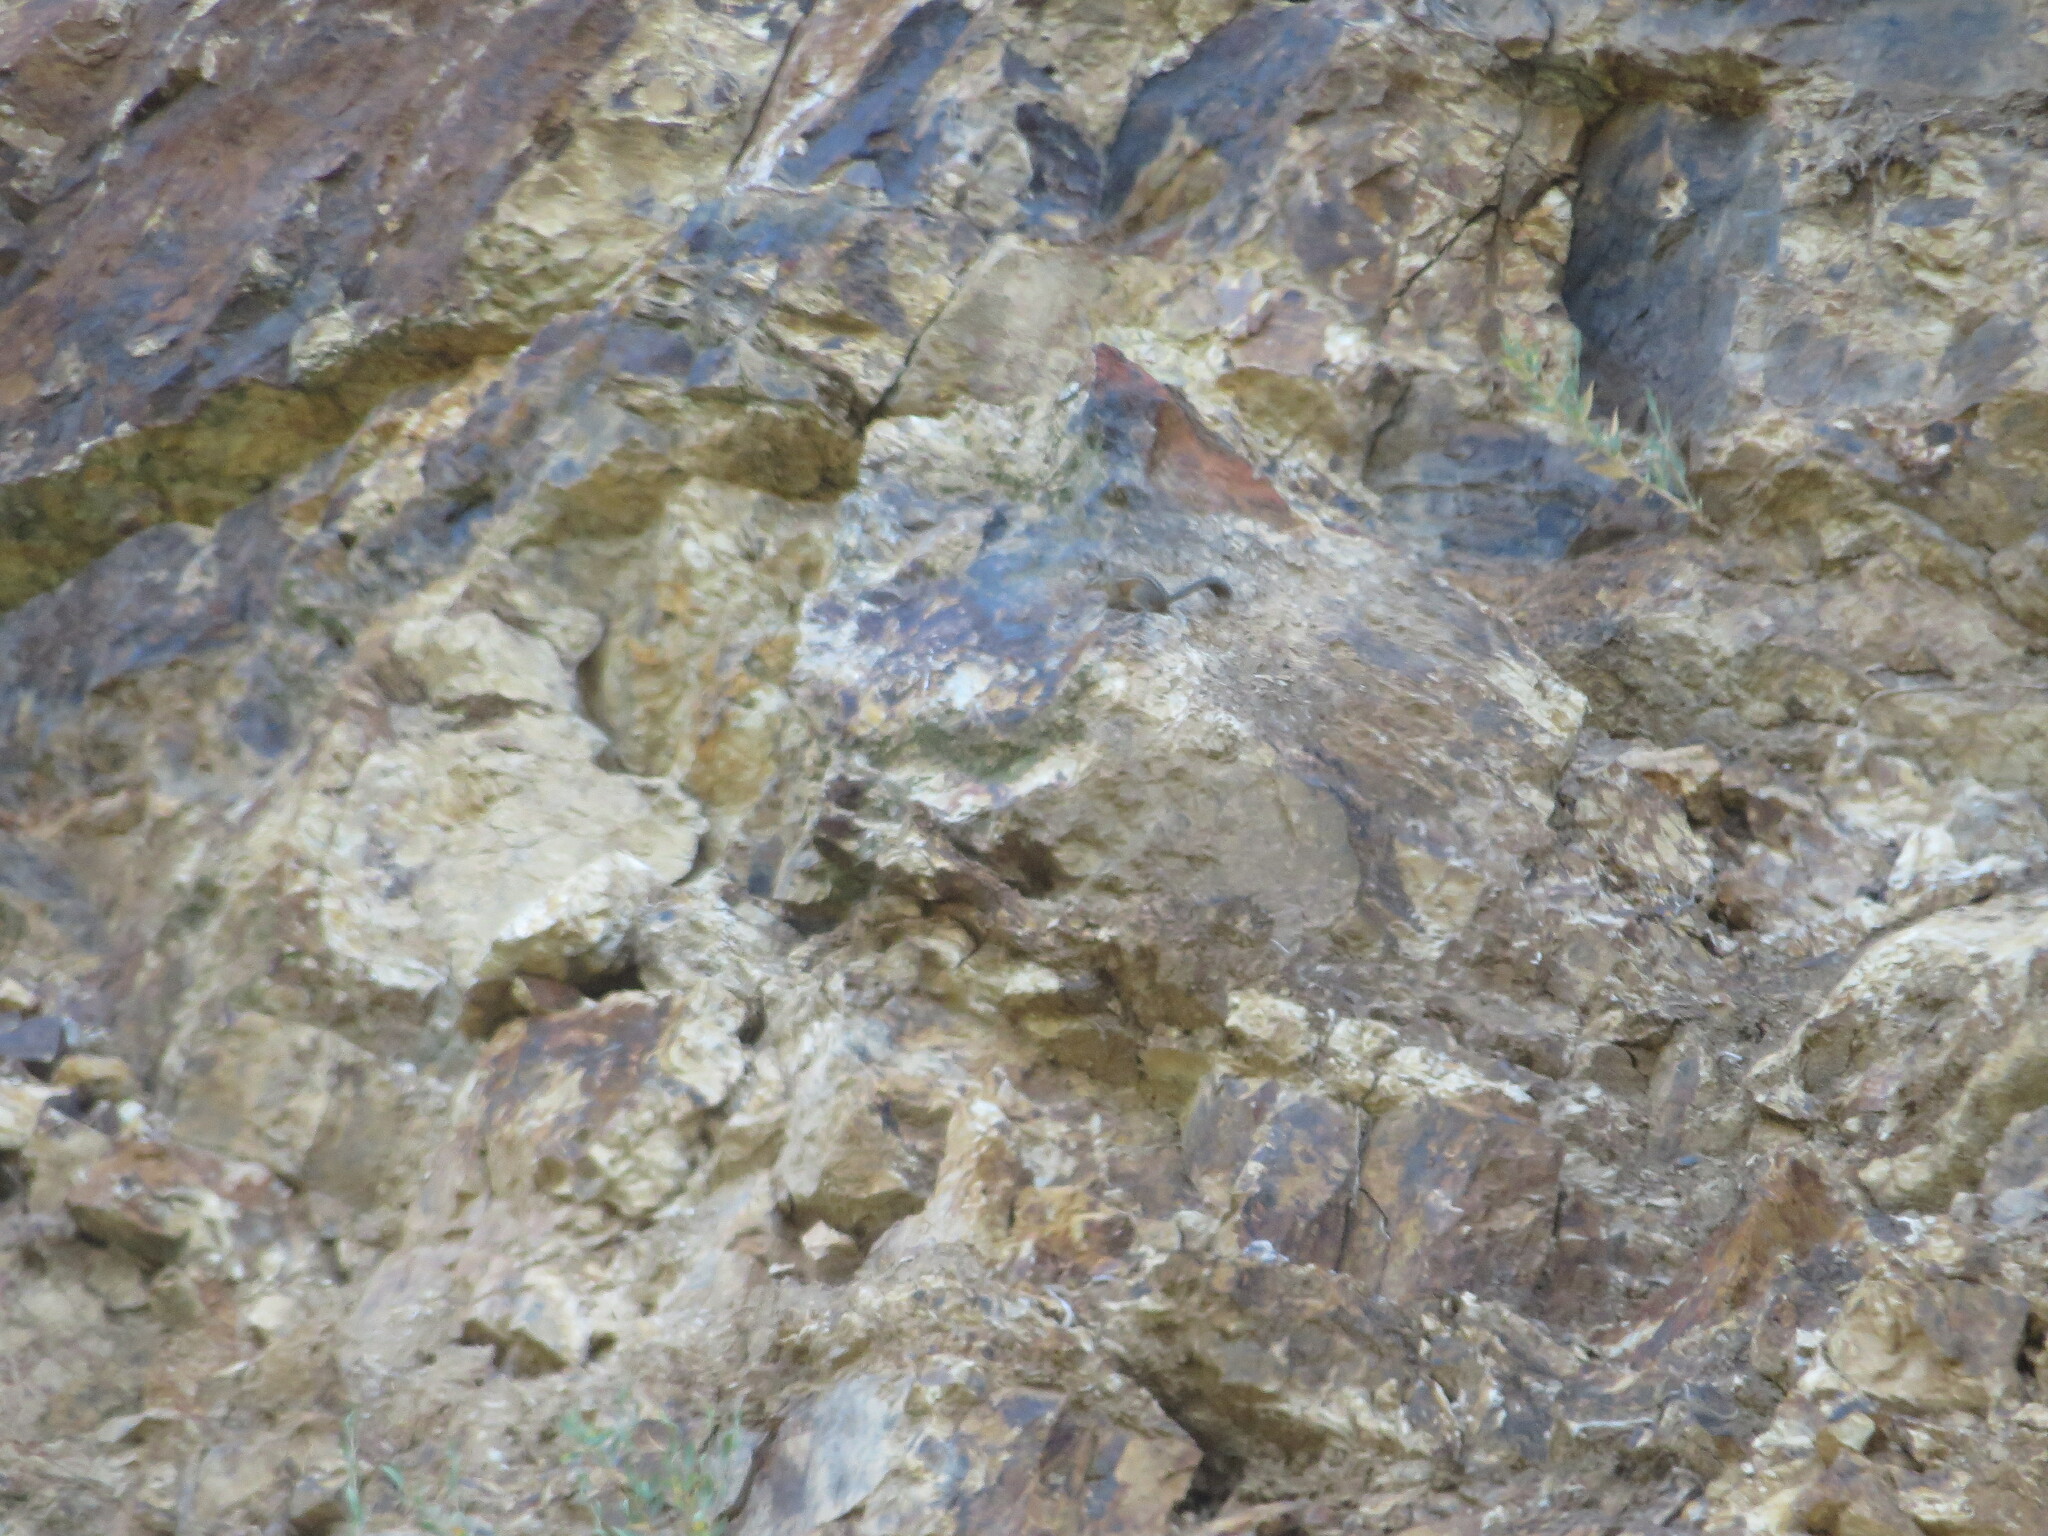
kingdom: Animalia
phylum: Chordata
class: Mammalia
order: Rodentia
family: Sciuridae
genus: Tamias
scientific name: Tamias merriami
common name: Merriam's chipmunk
